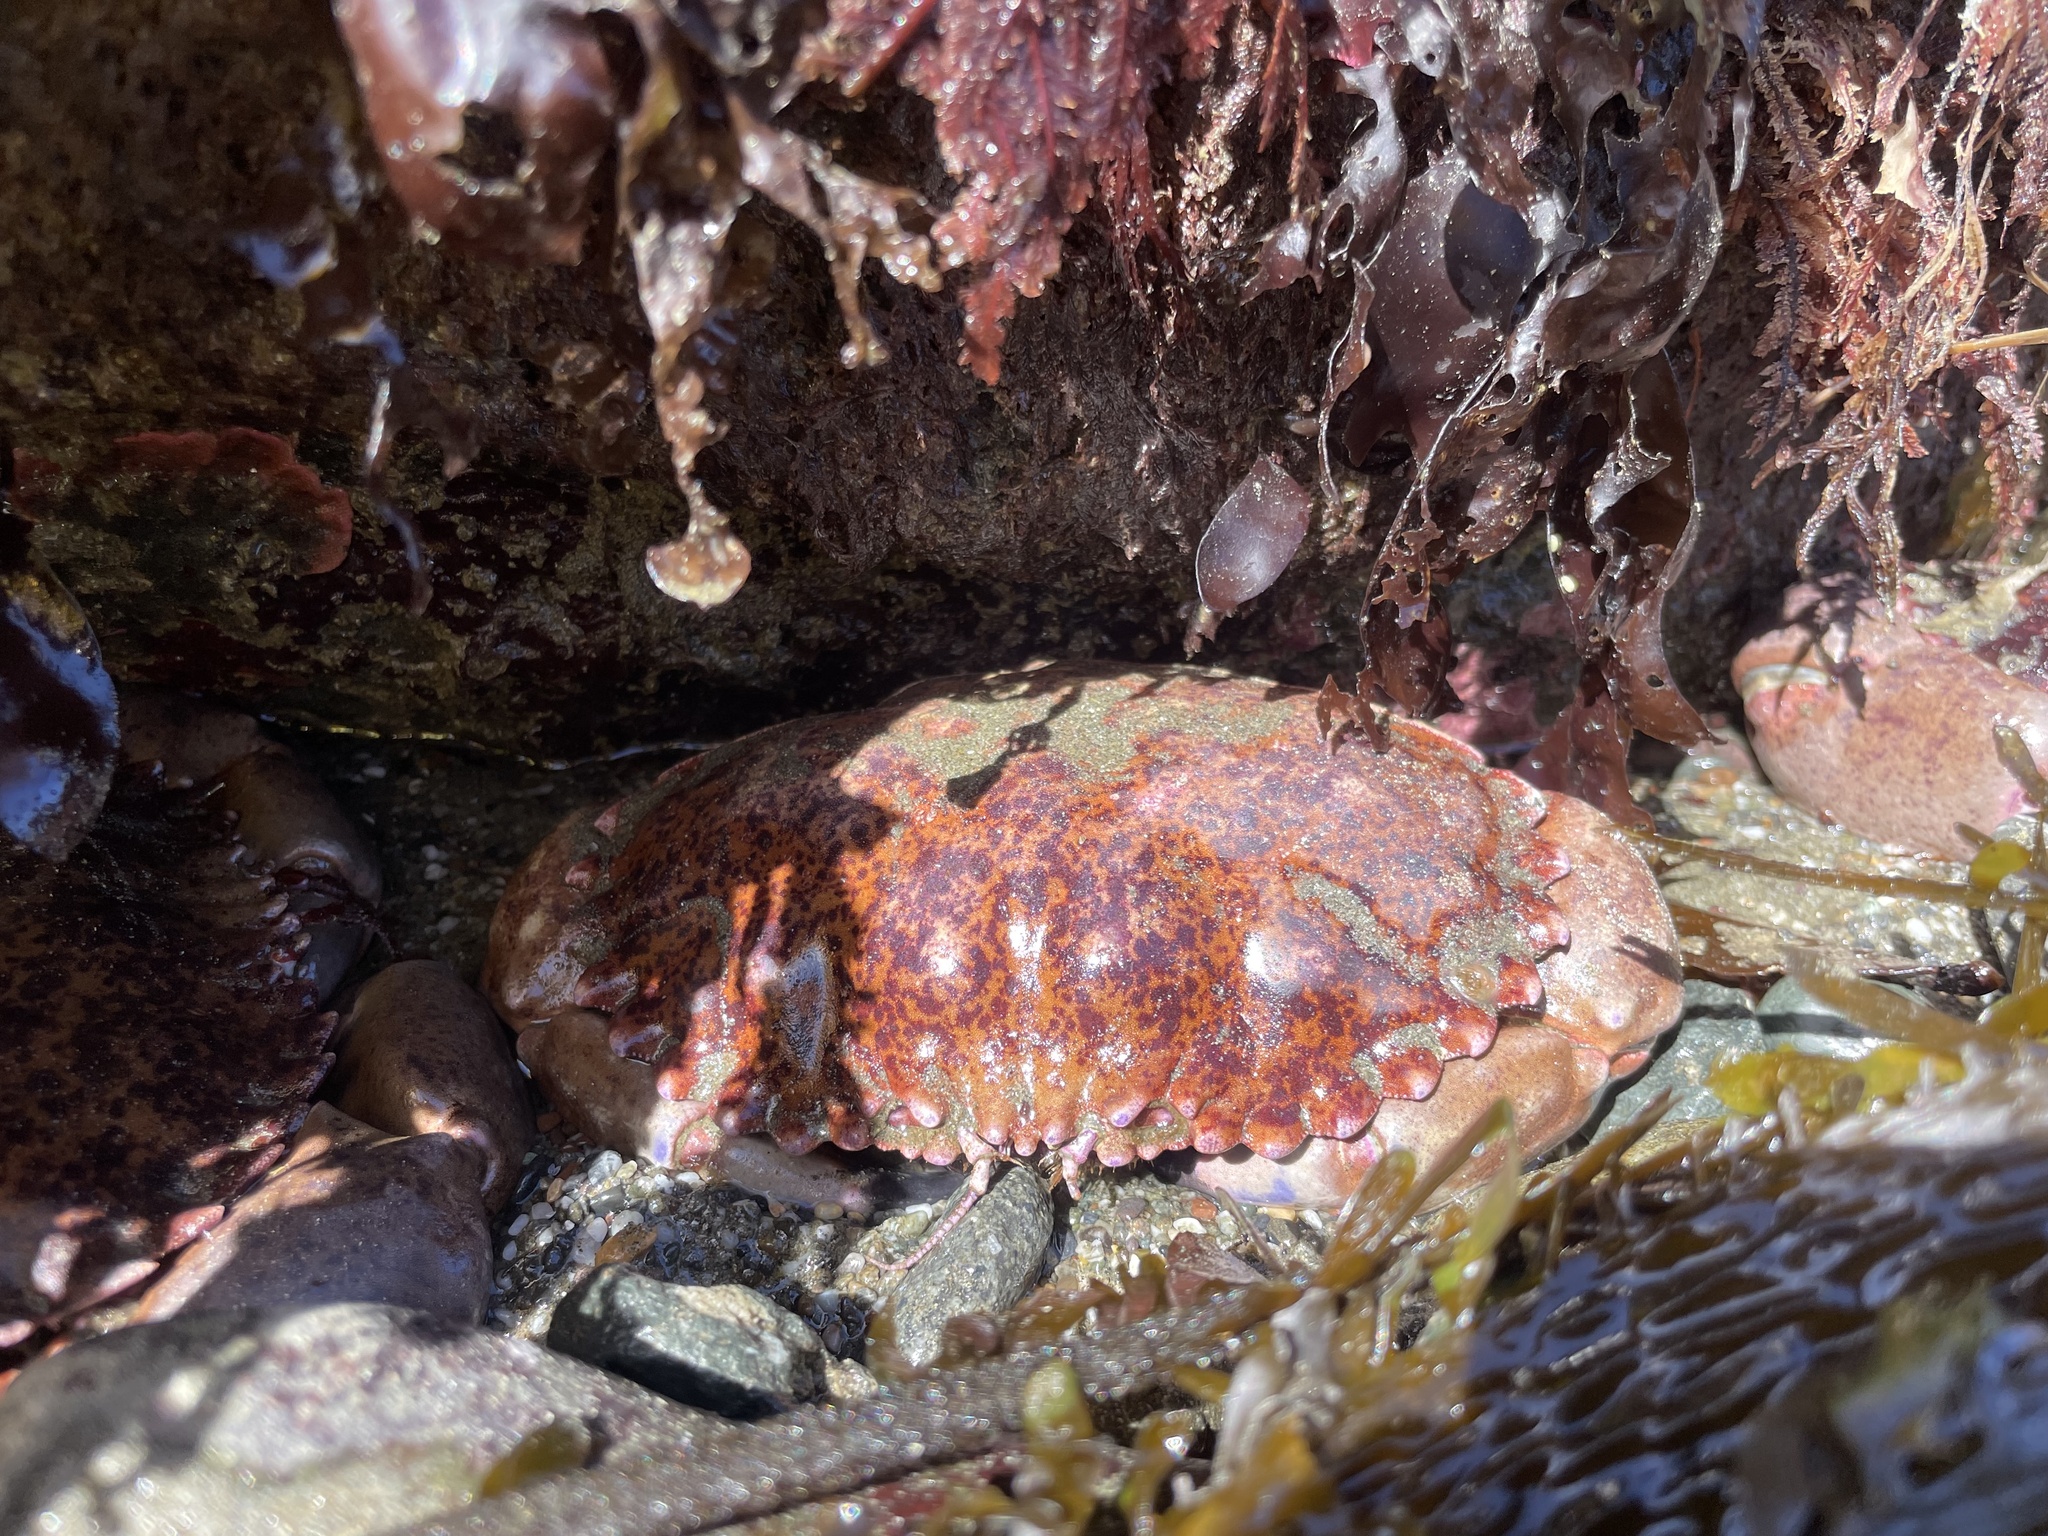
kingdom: Animalia
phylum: Arthropoda
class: Malacostraca
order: Decapoda
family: Cancridae
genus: Romaleon
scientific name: Romaleon antennarium
